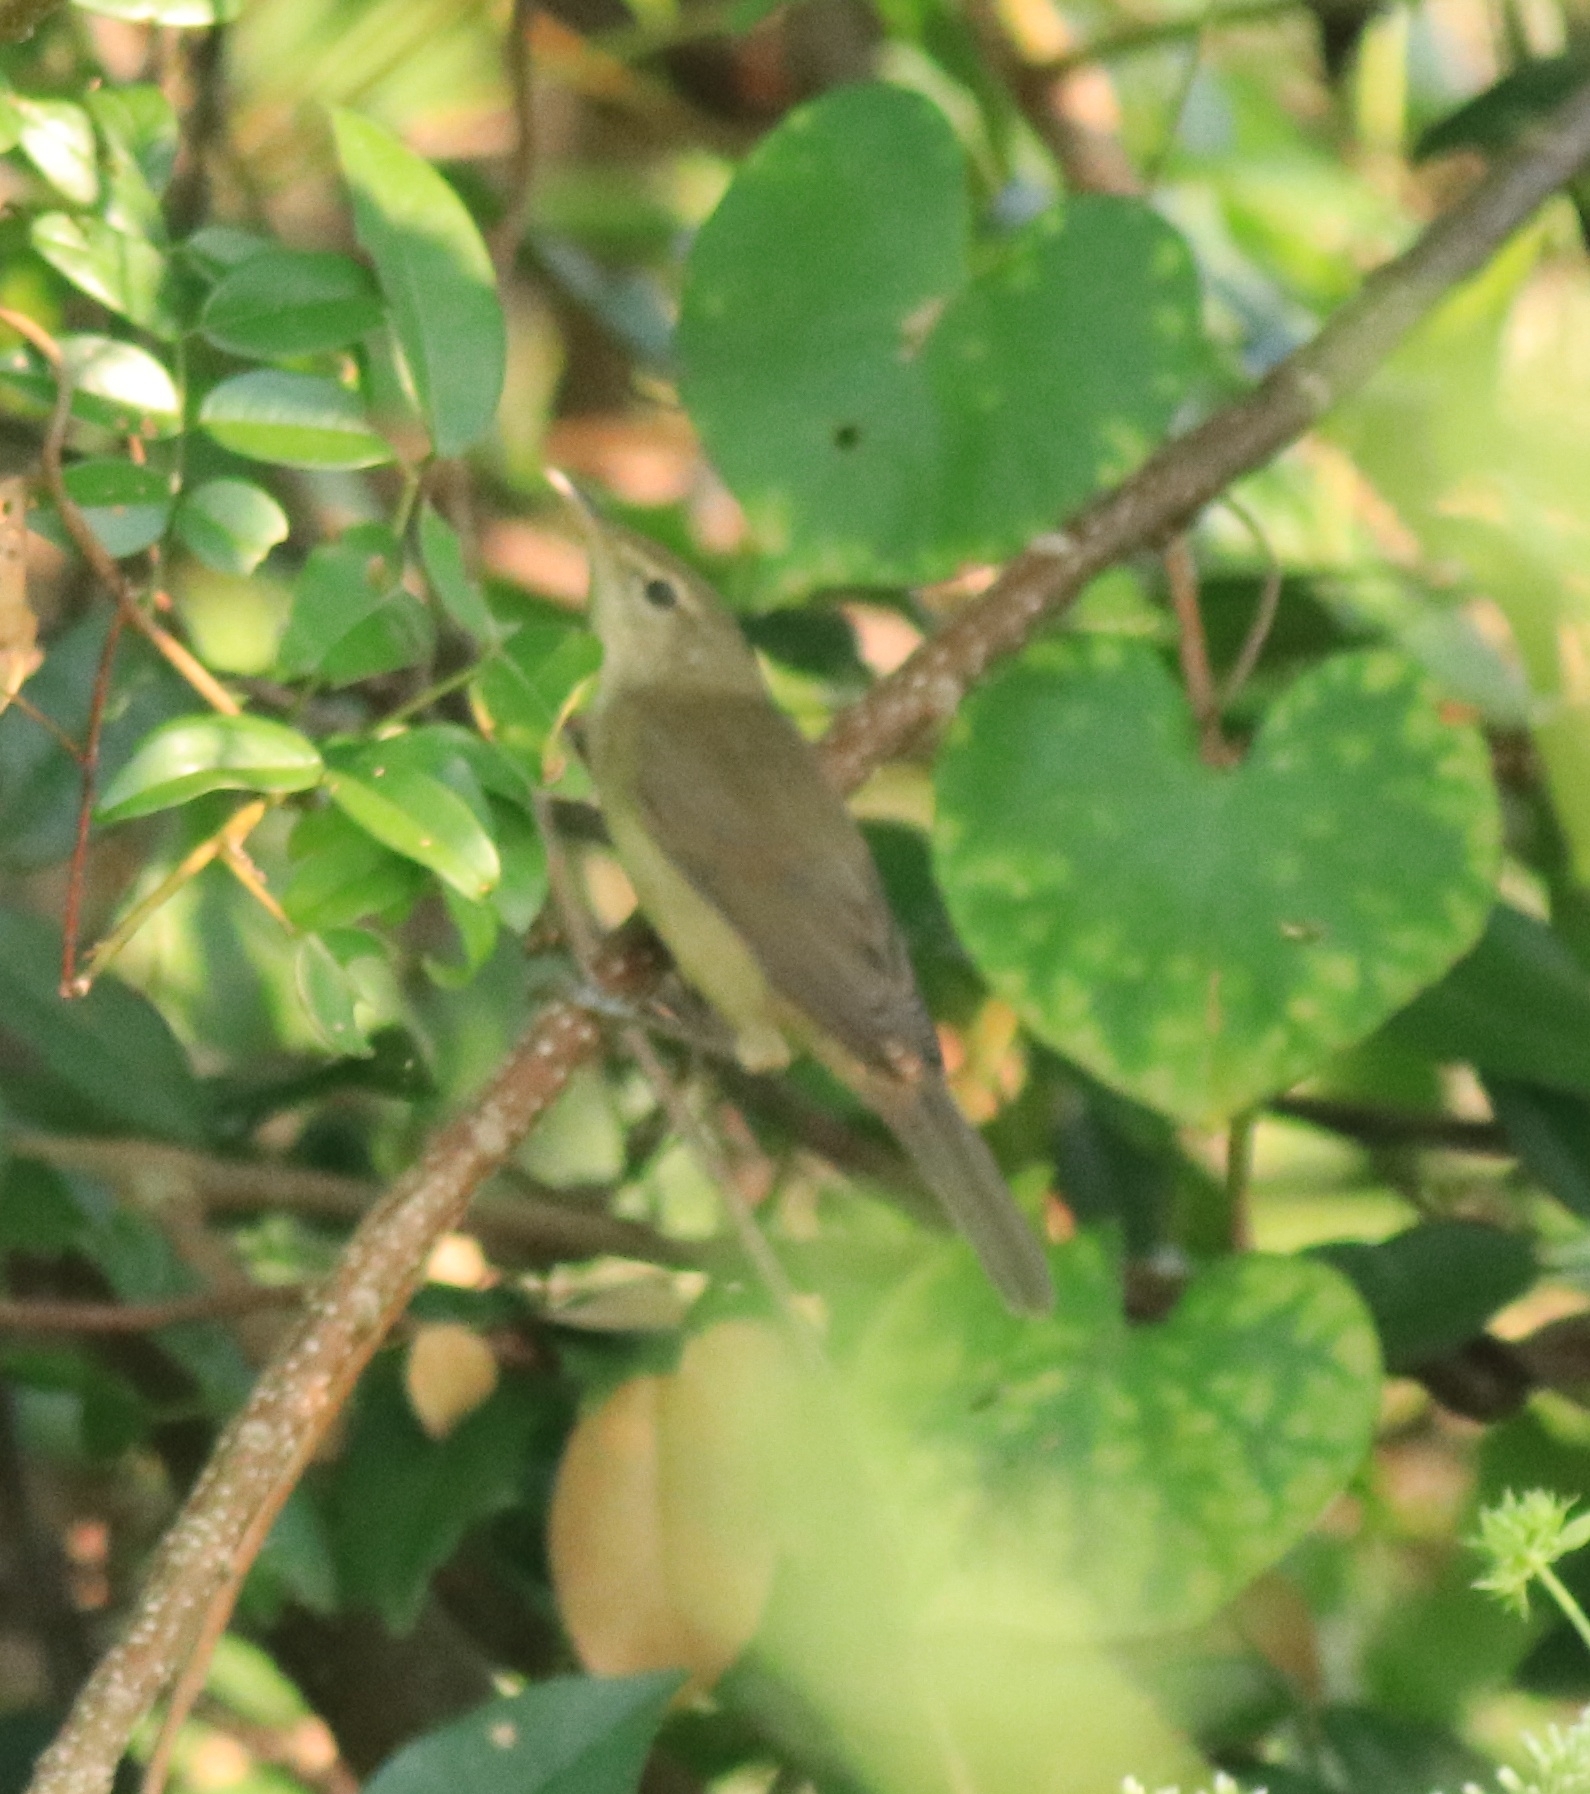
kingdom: Animalia
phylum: Chordata
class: Aves
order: Passeriformes
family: Acrocephalidae
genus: Acrocephalus
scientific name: Acrocephalus dumetorum
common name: Blyth's reed warbler
